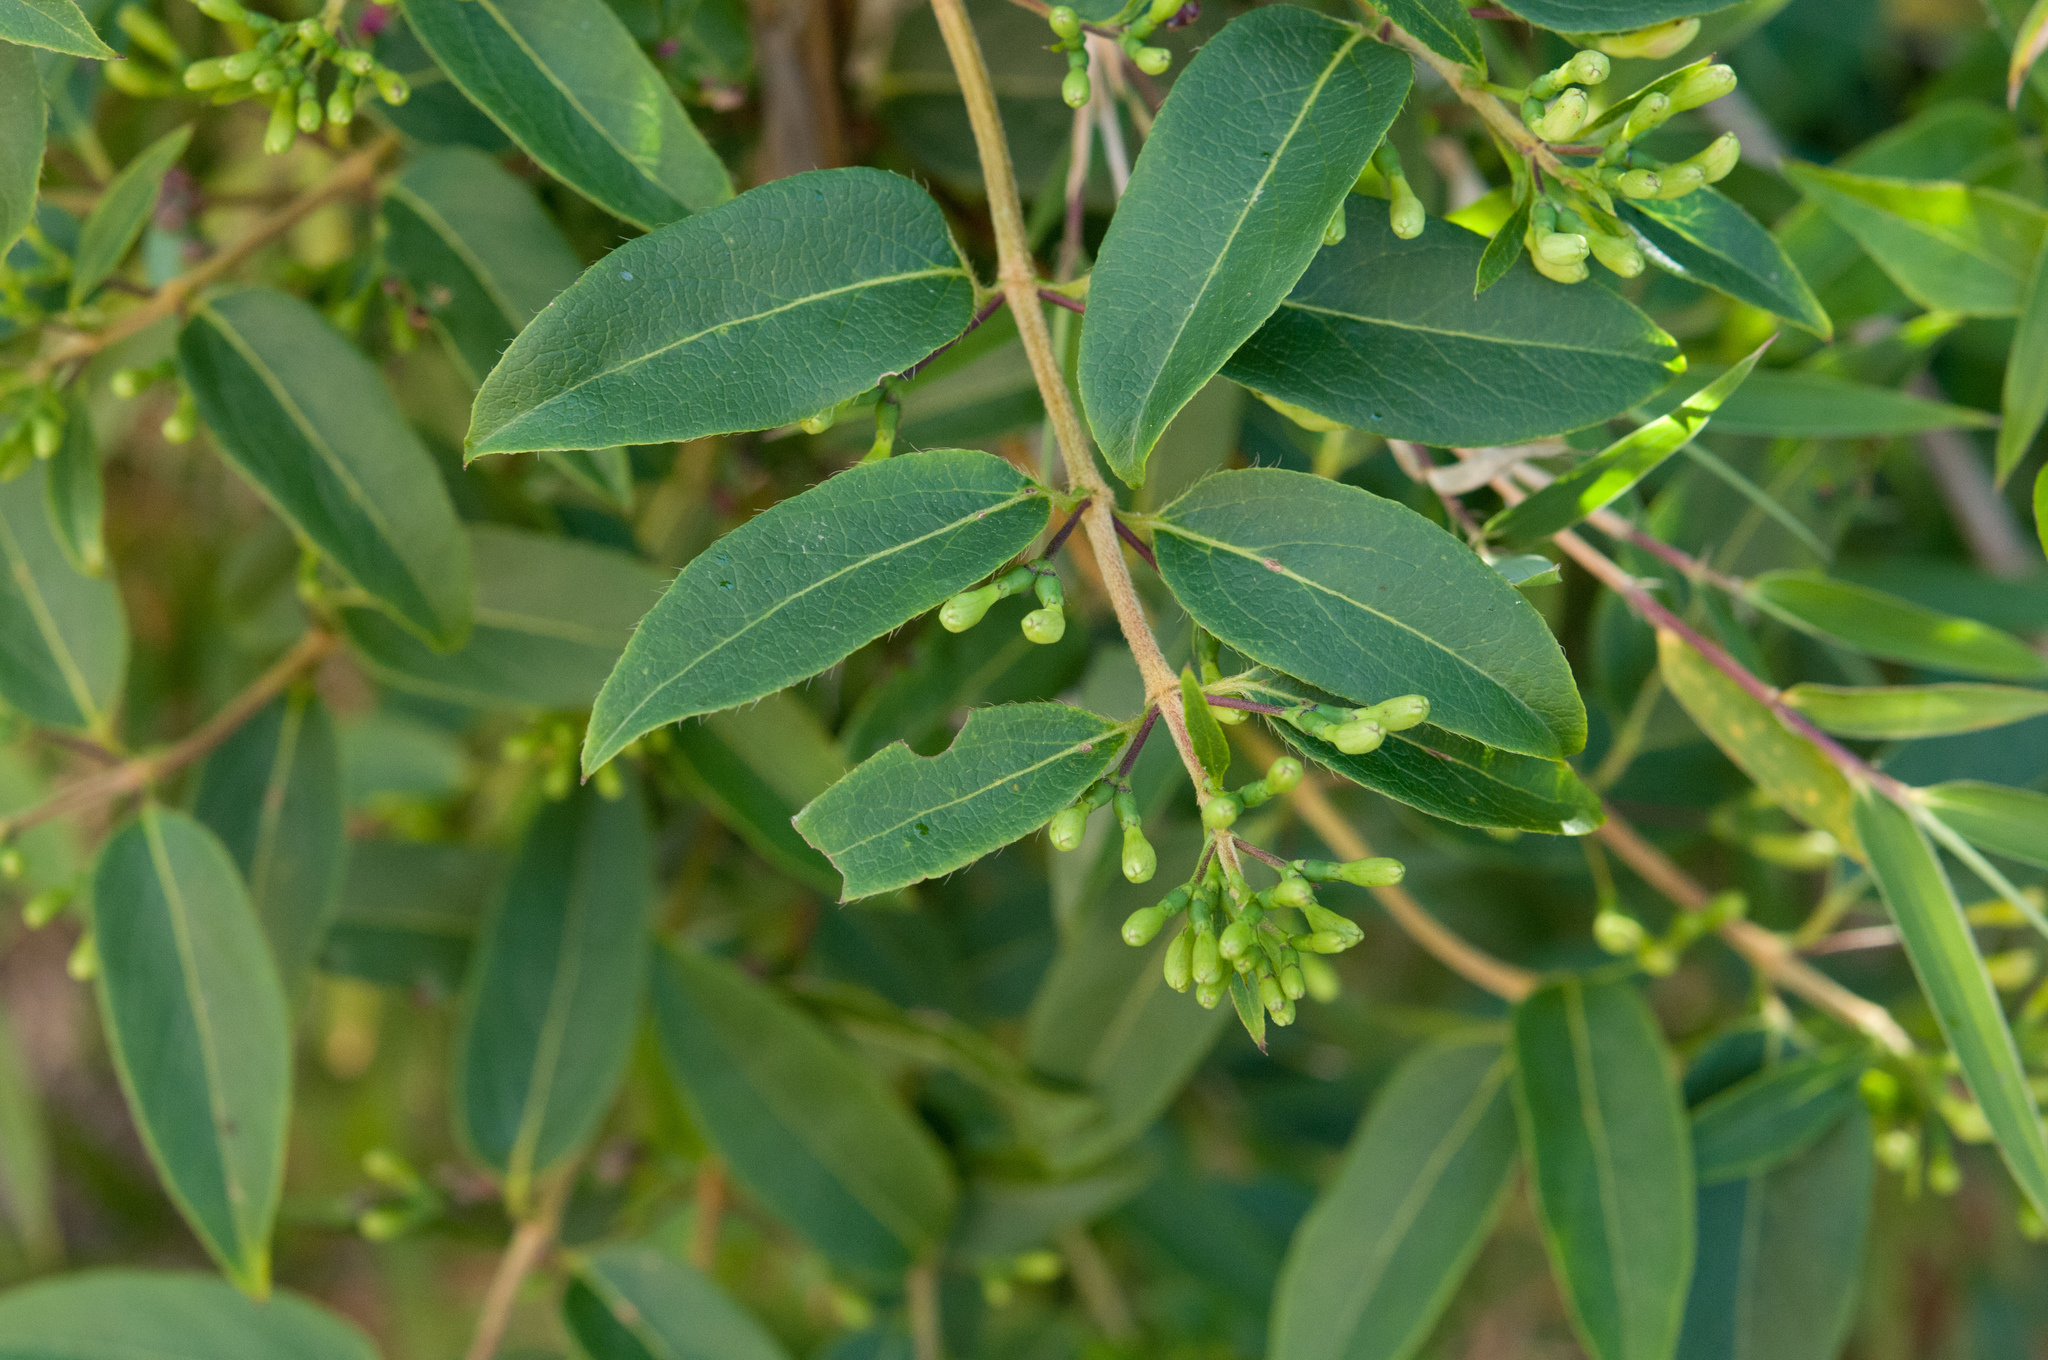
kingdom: Plantae
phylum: Tracheophyta
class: Magnoliopsida
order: Dipsacales
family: Caprifoliaceae
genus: Lonicera
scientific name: Lonicera acuminata
